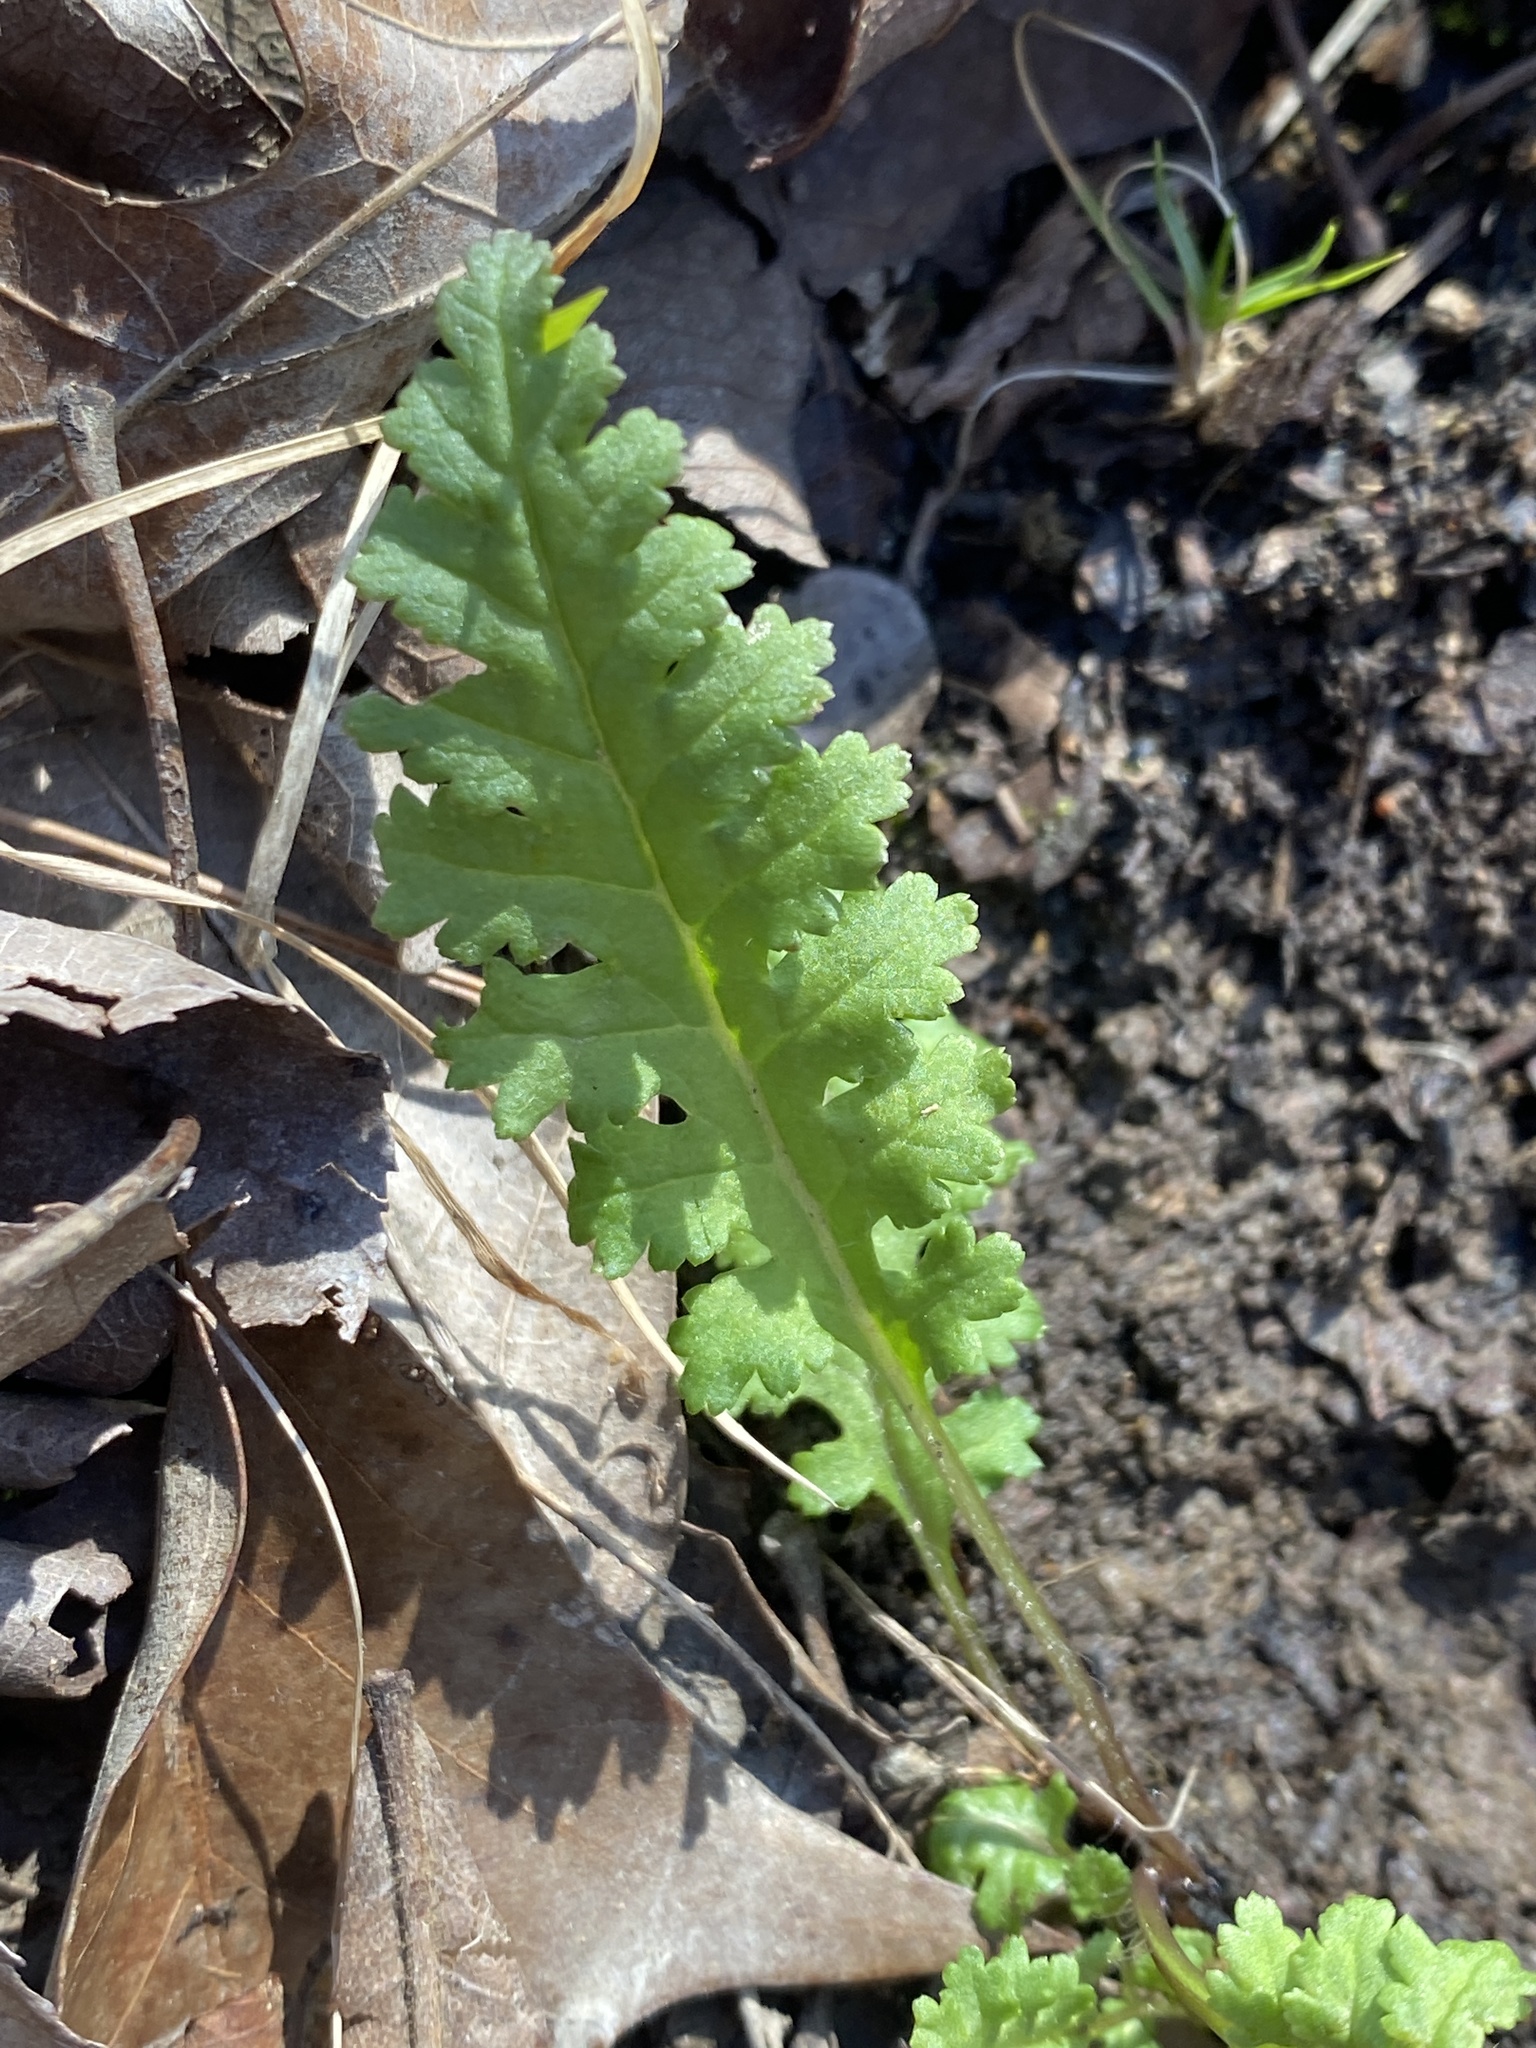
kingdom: Plantae
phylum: Tracheophyta
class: Magnoliopsida
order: Lamiales
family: Orobanchaceae
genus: Pedicularis
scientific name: Pedicularis canadensis
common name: Early lousewort
